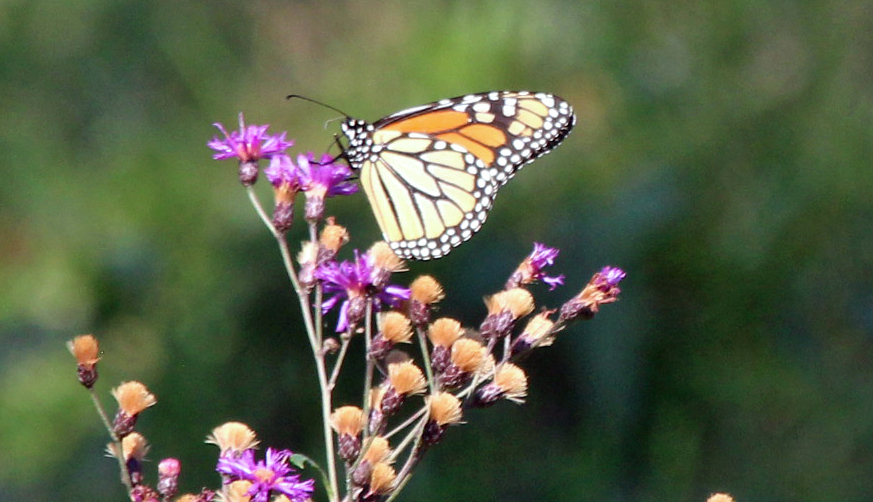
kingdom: Animalia
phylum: Arthropoda
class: Insecta
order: Lepidoptera
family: Nymphalidae
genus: Danaus
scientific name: Danaus plexippus
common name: Monarch
